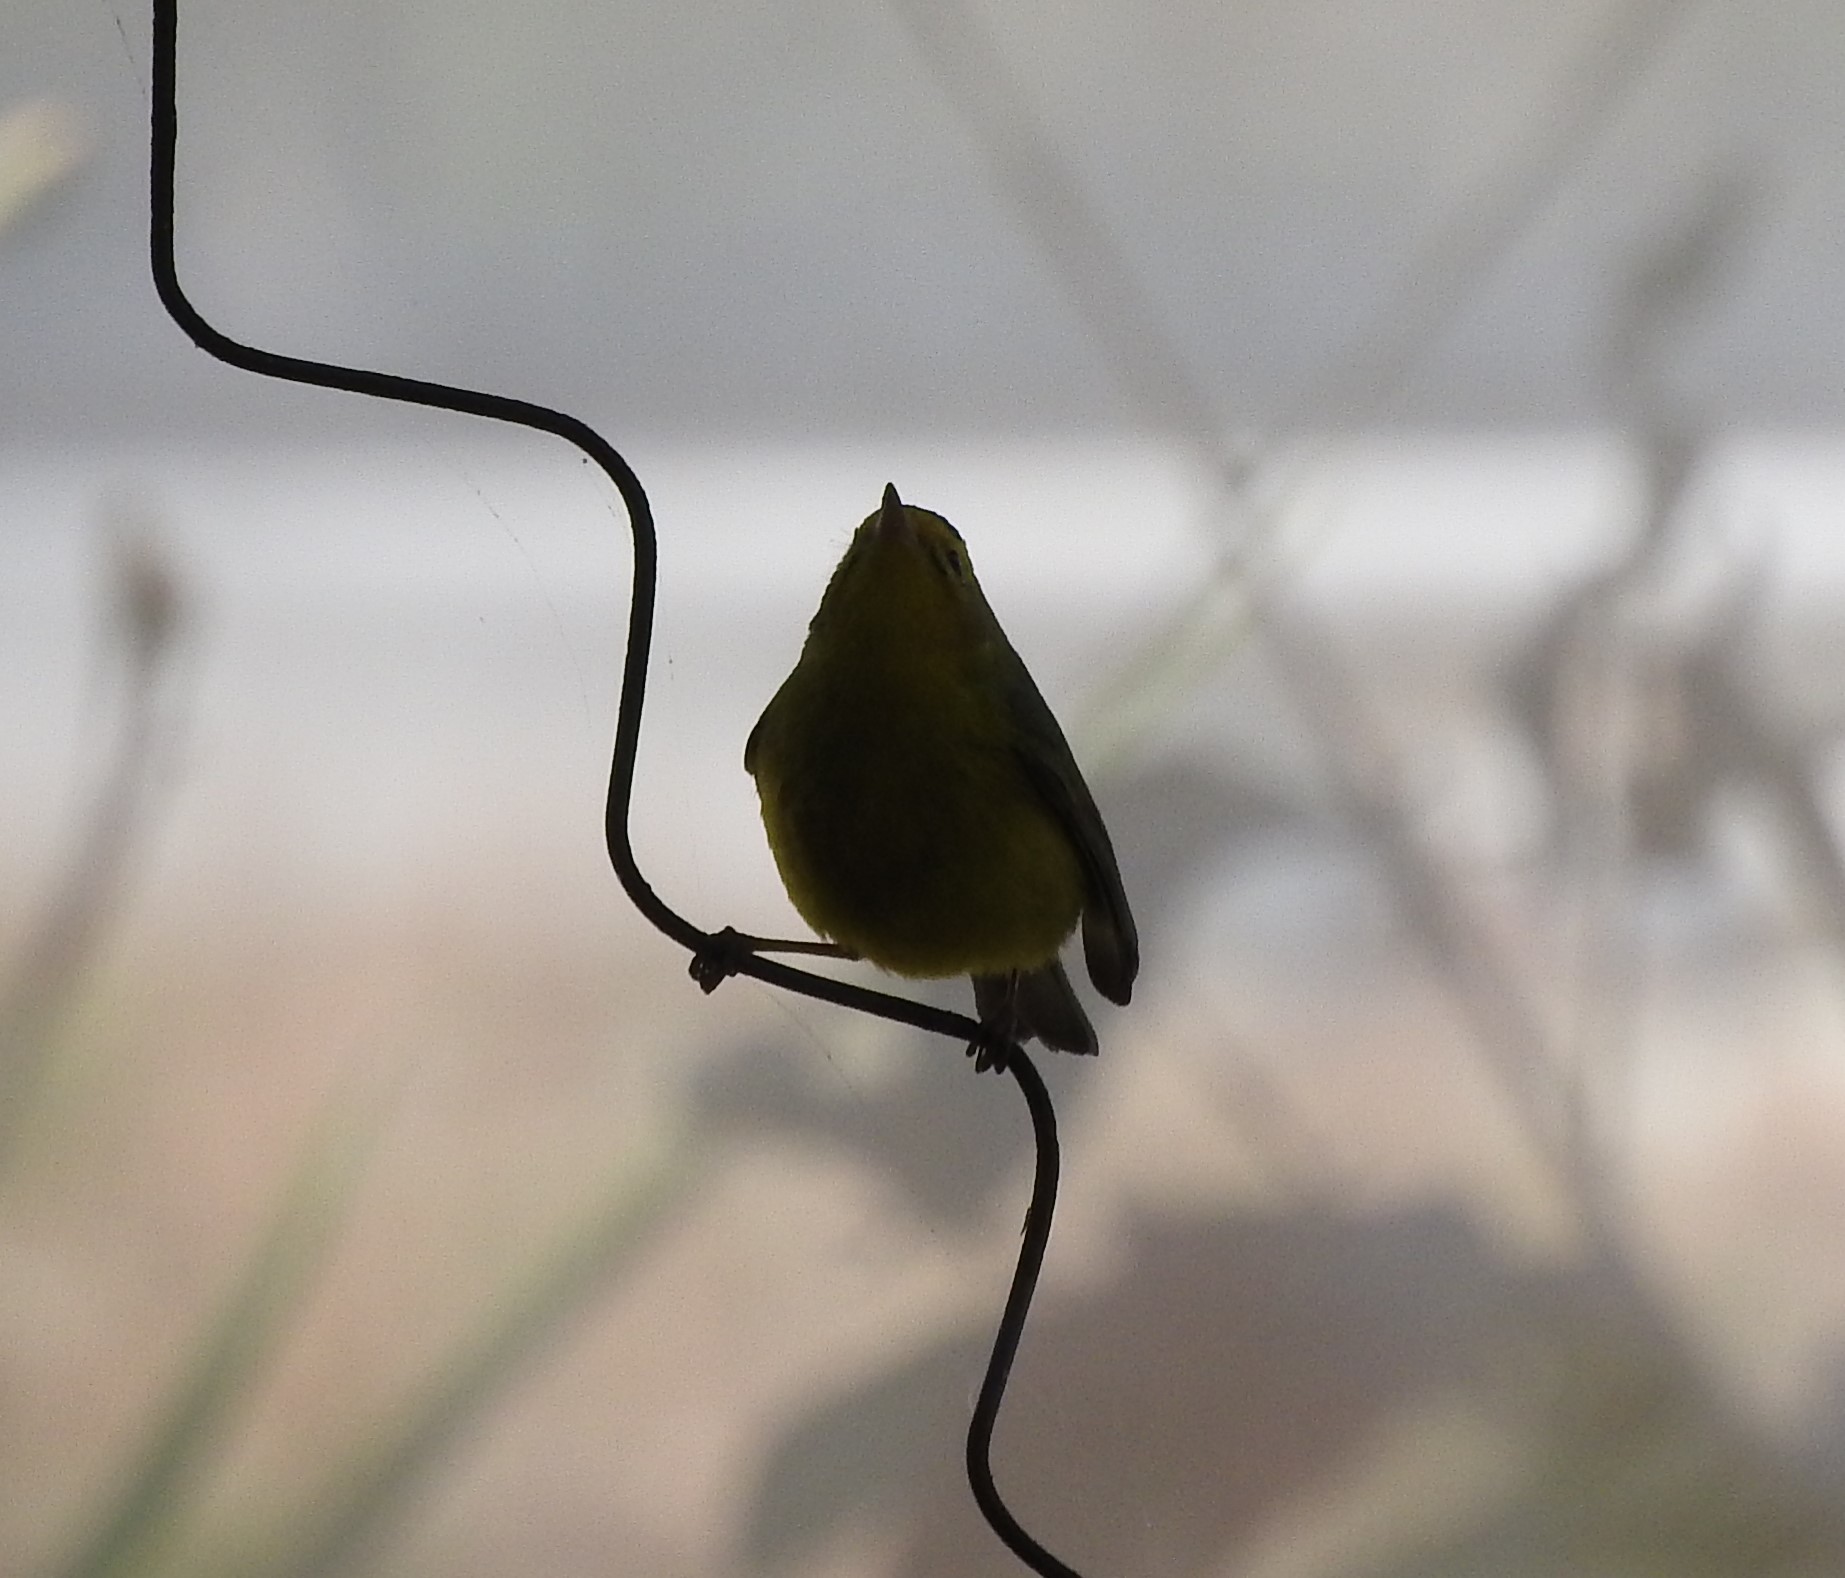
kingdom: Animalia
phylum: Chordata
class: Aves
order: Passeriformes
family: Parulidae
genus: Cardellina
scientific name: Cardellina pusilla
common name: Wilson's warbler
